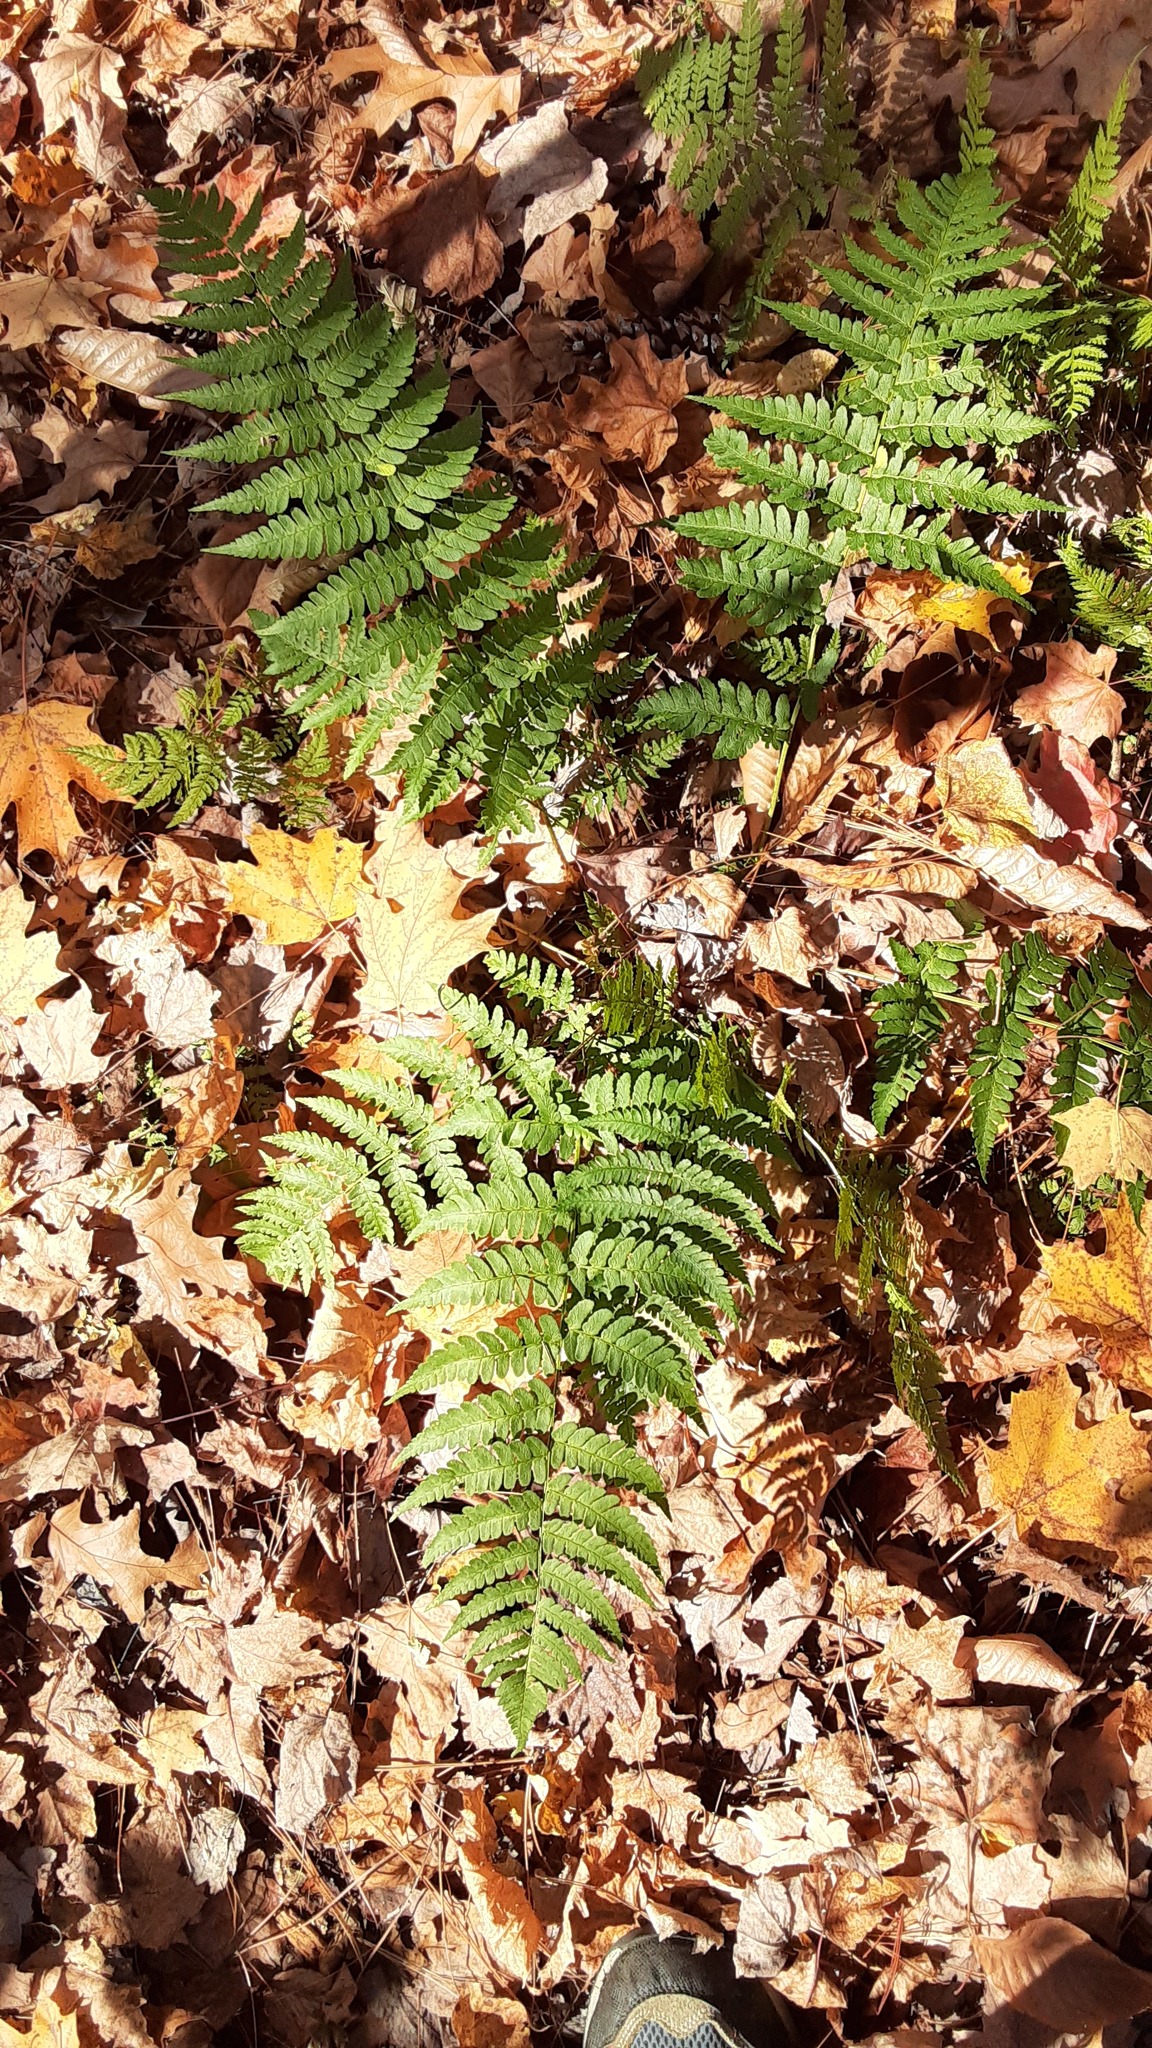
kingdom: Plantae
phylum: Tracheophyta
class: Polypodiopsida
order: Polypodiales
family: Dryopteridaceae
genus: Dryopteris
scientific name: Dryopteris marginalis
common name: Marginal wood fern
